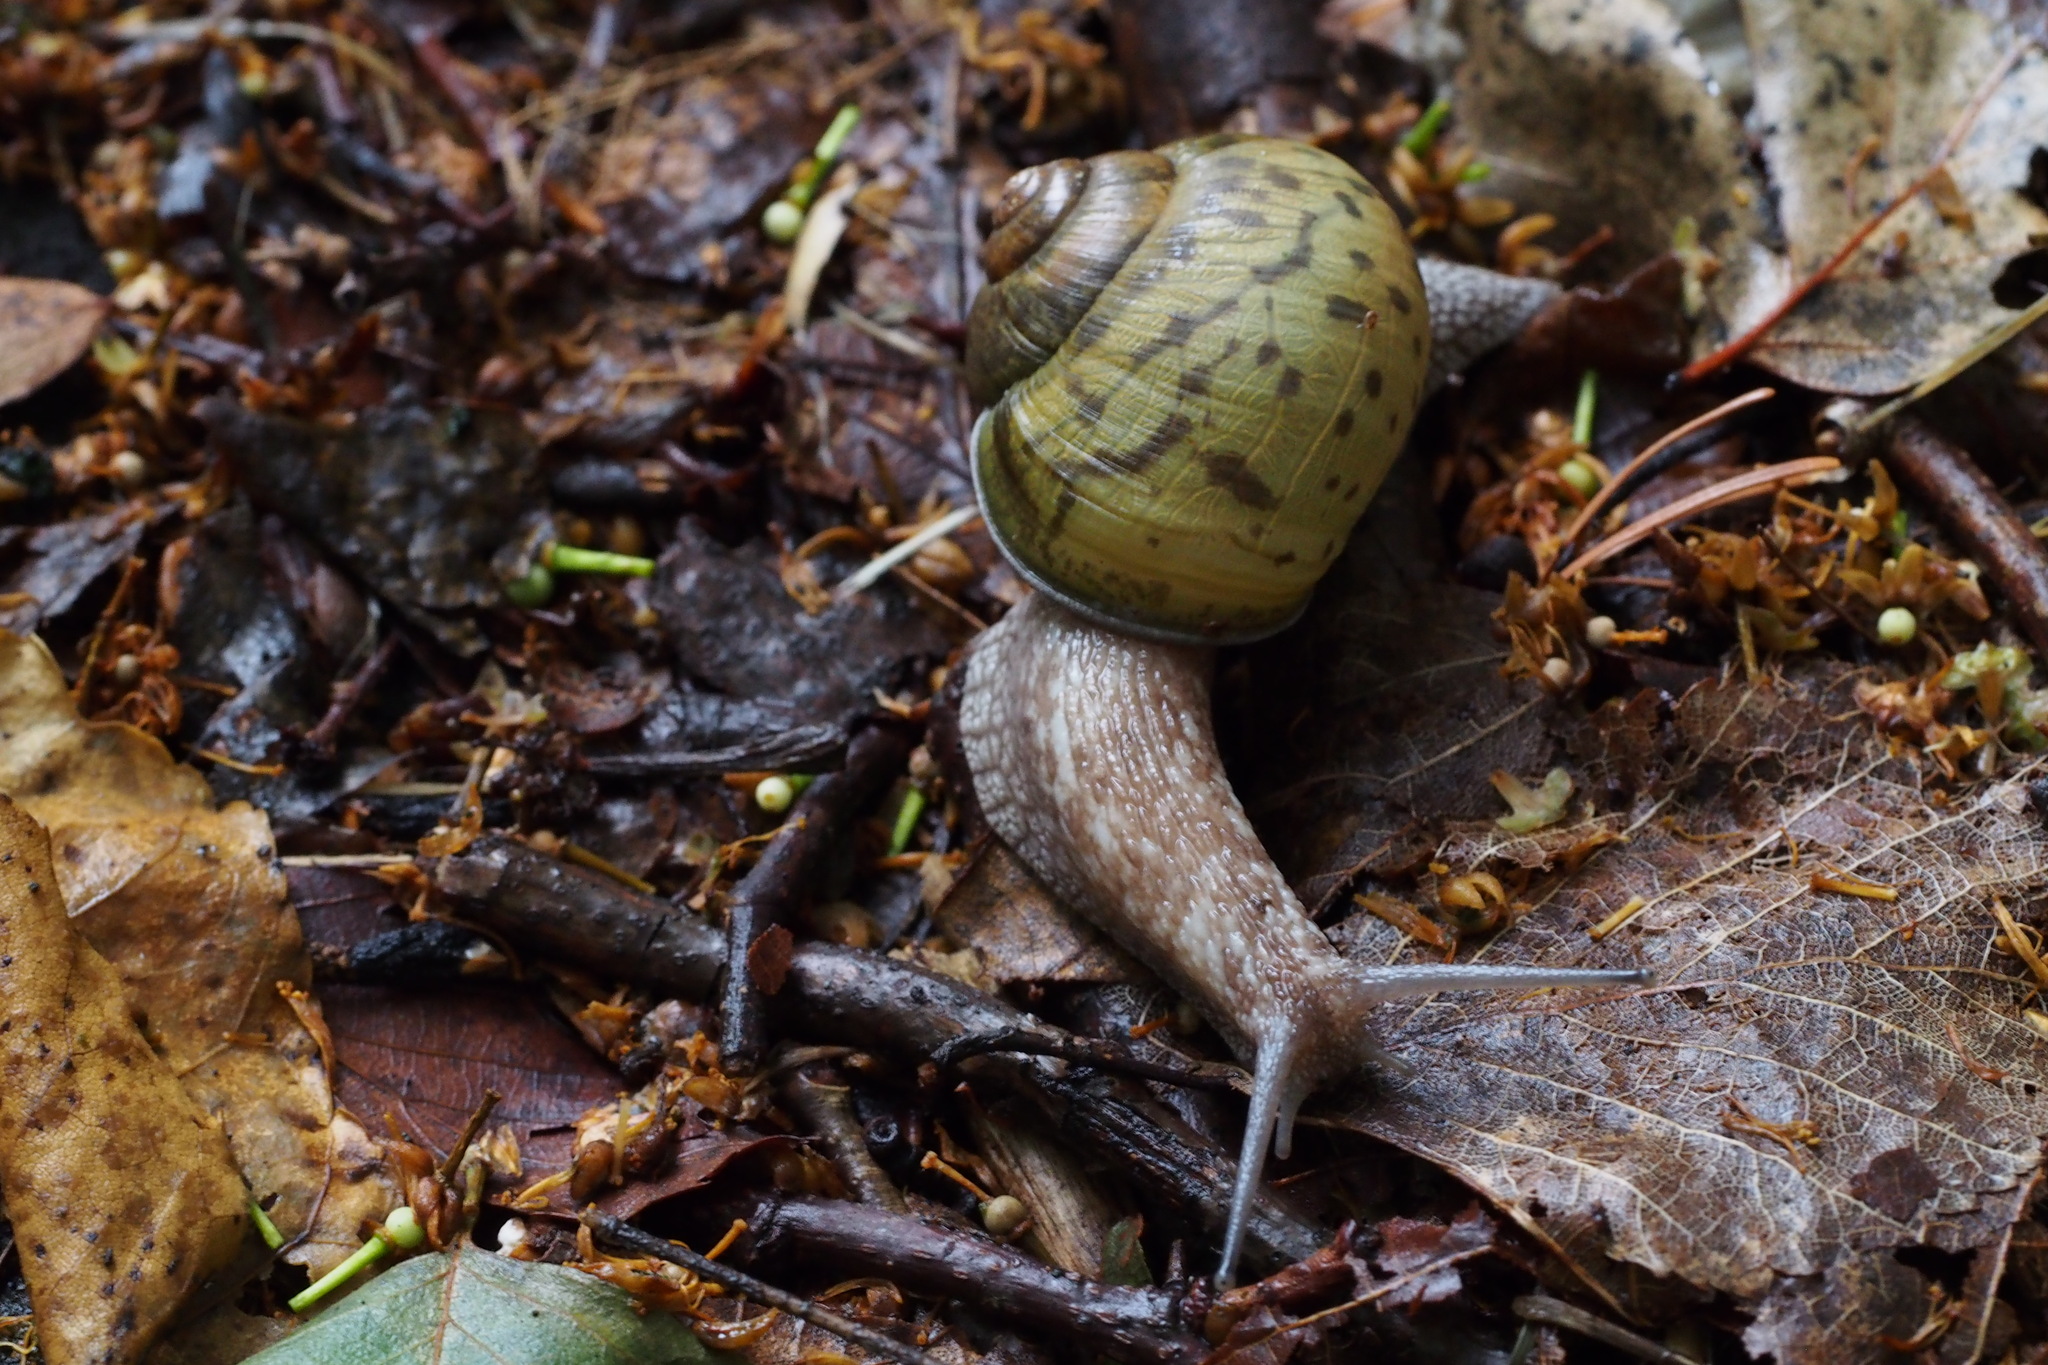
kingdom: Animalia
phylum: Mollusca
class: Gastropoda
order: Stylommatophora
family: Camaenidae
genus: Karaftohelix
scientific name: Karaftohelix gainesi
